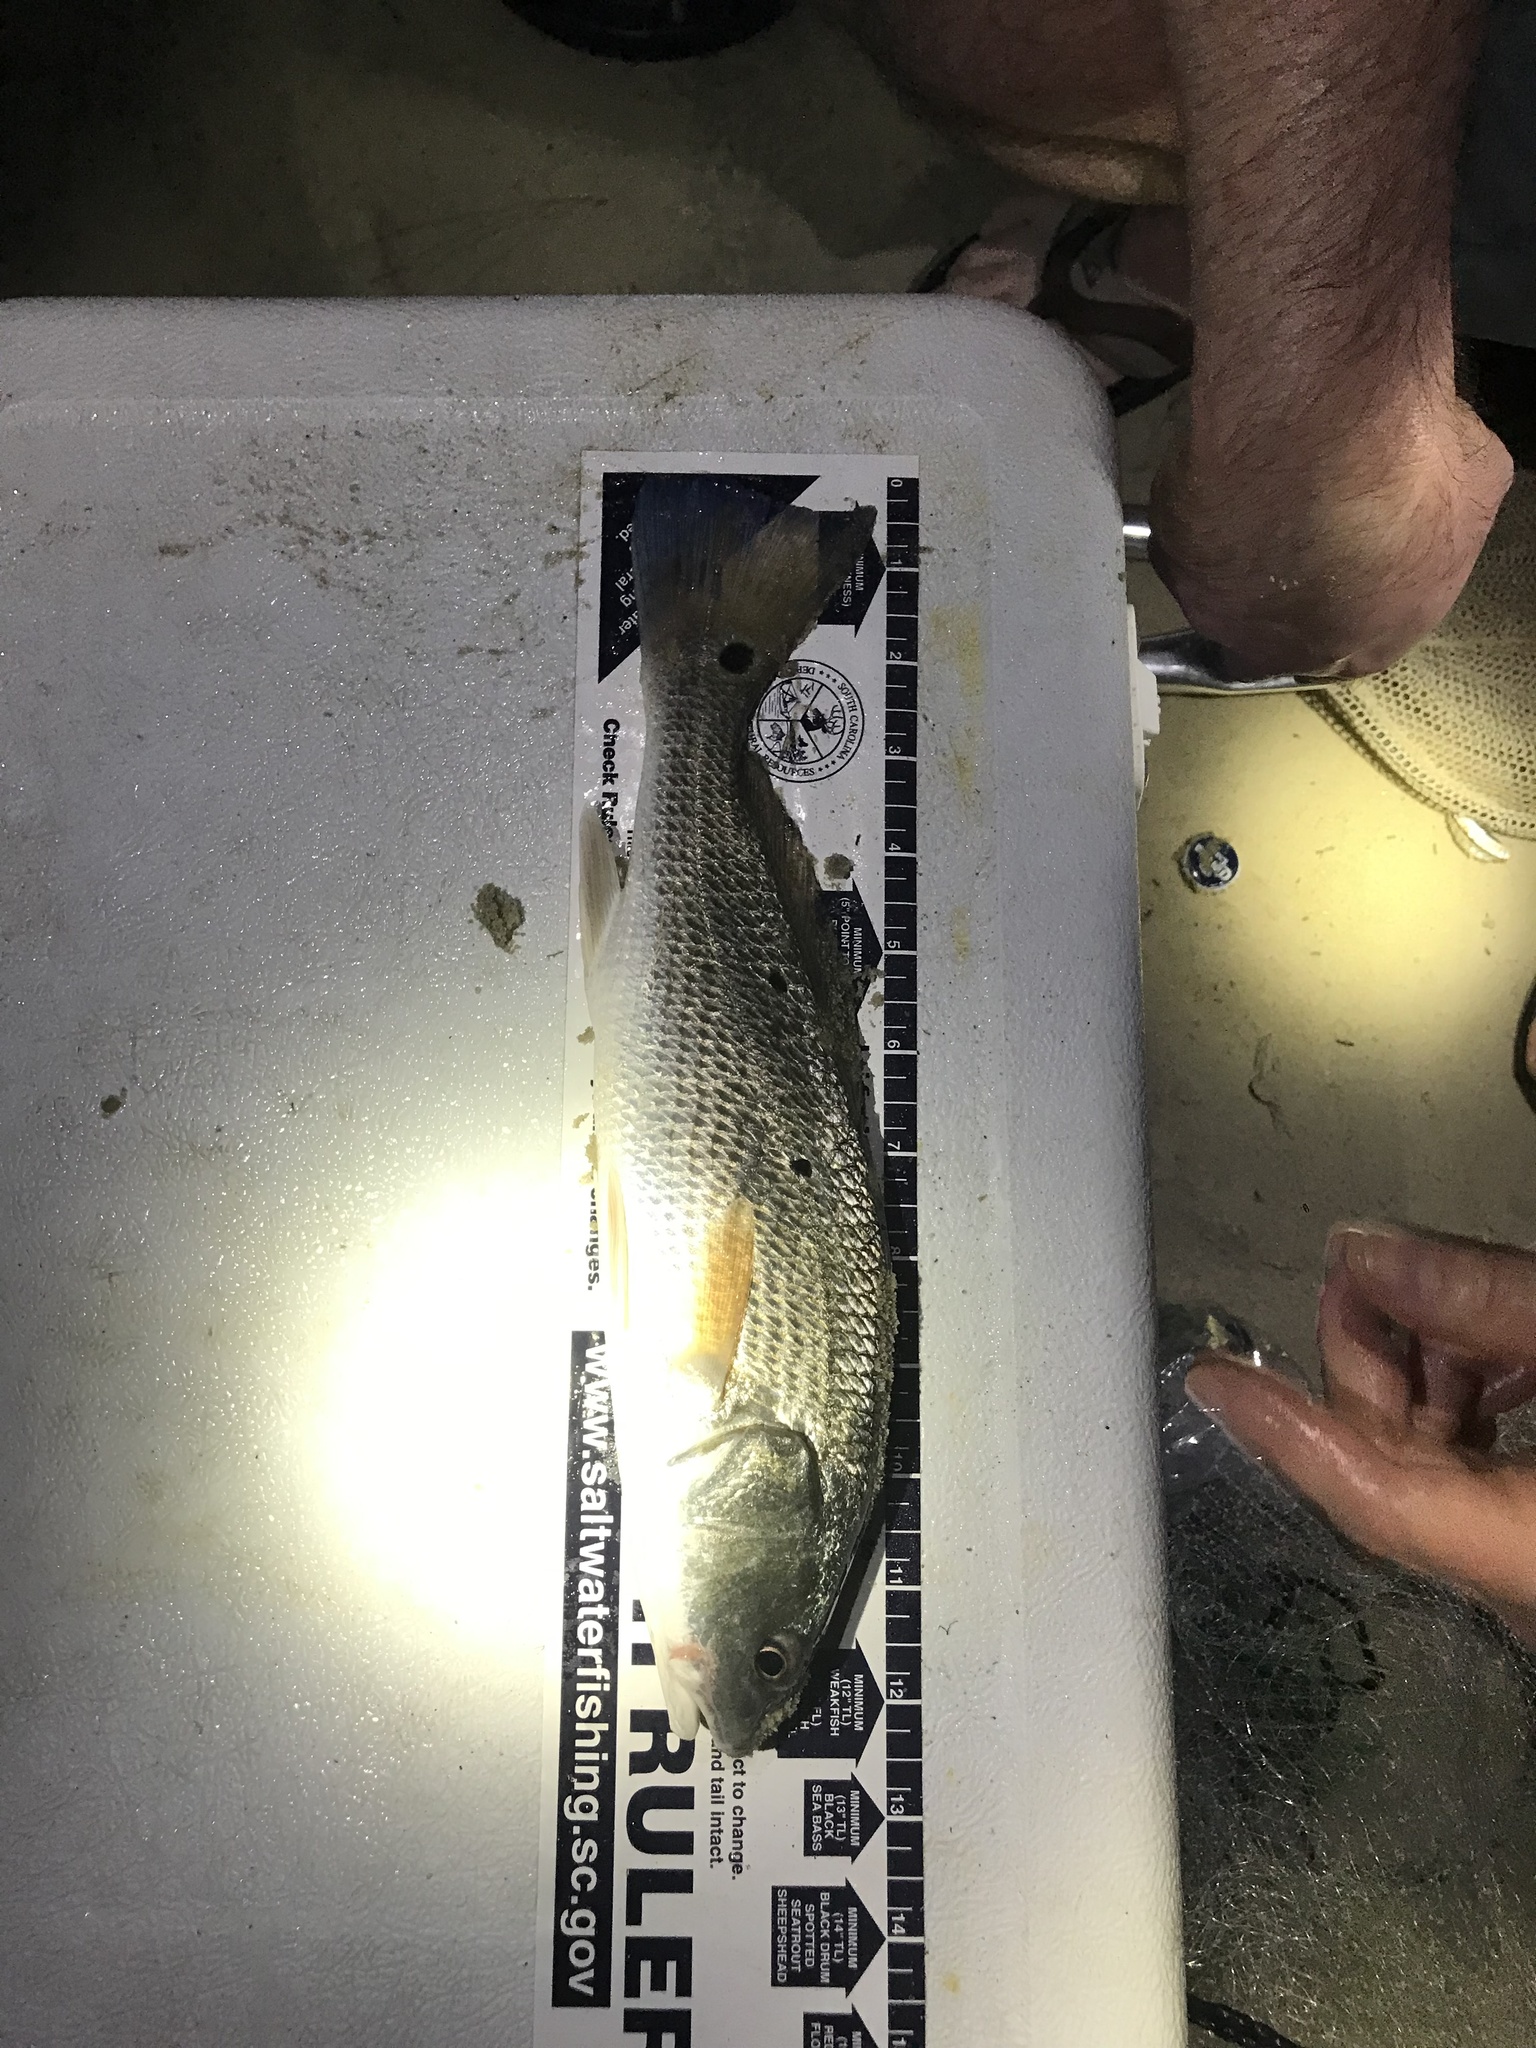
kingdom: Animalia
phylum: Chordata
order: Perciformes
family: Sciaenidae
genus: Sciaenops
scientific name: Sciaenops ocellatus
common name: Red drum
